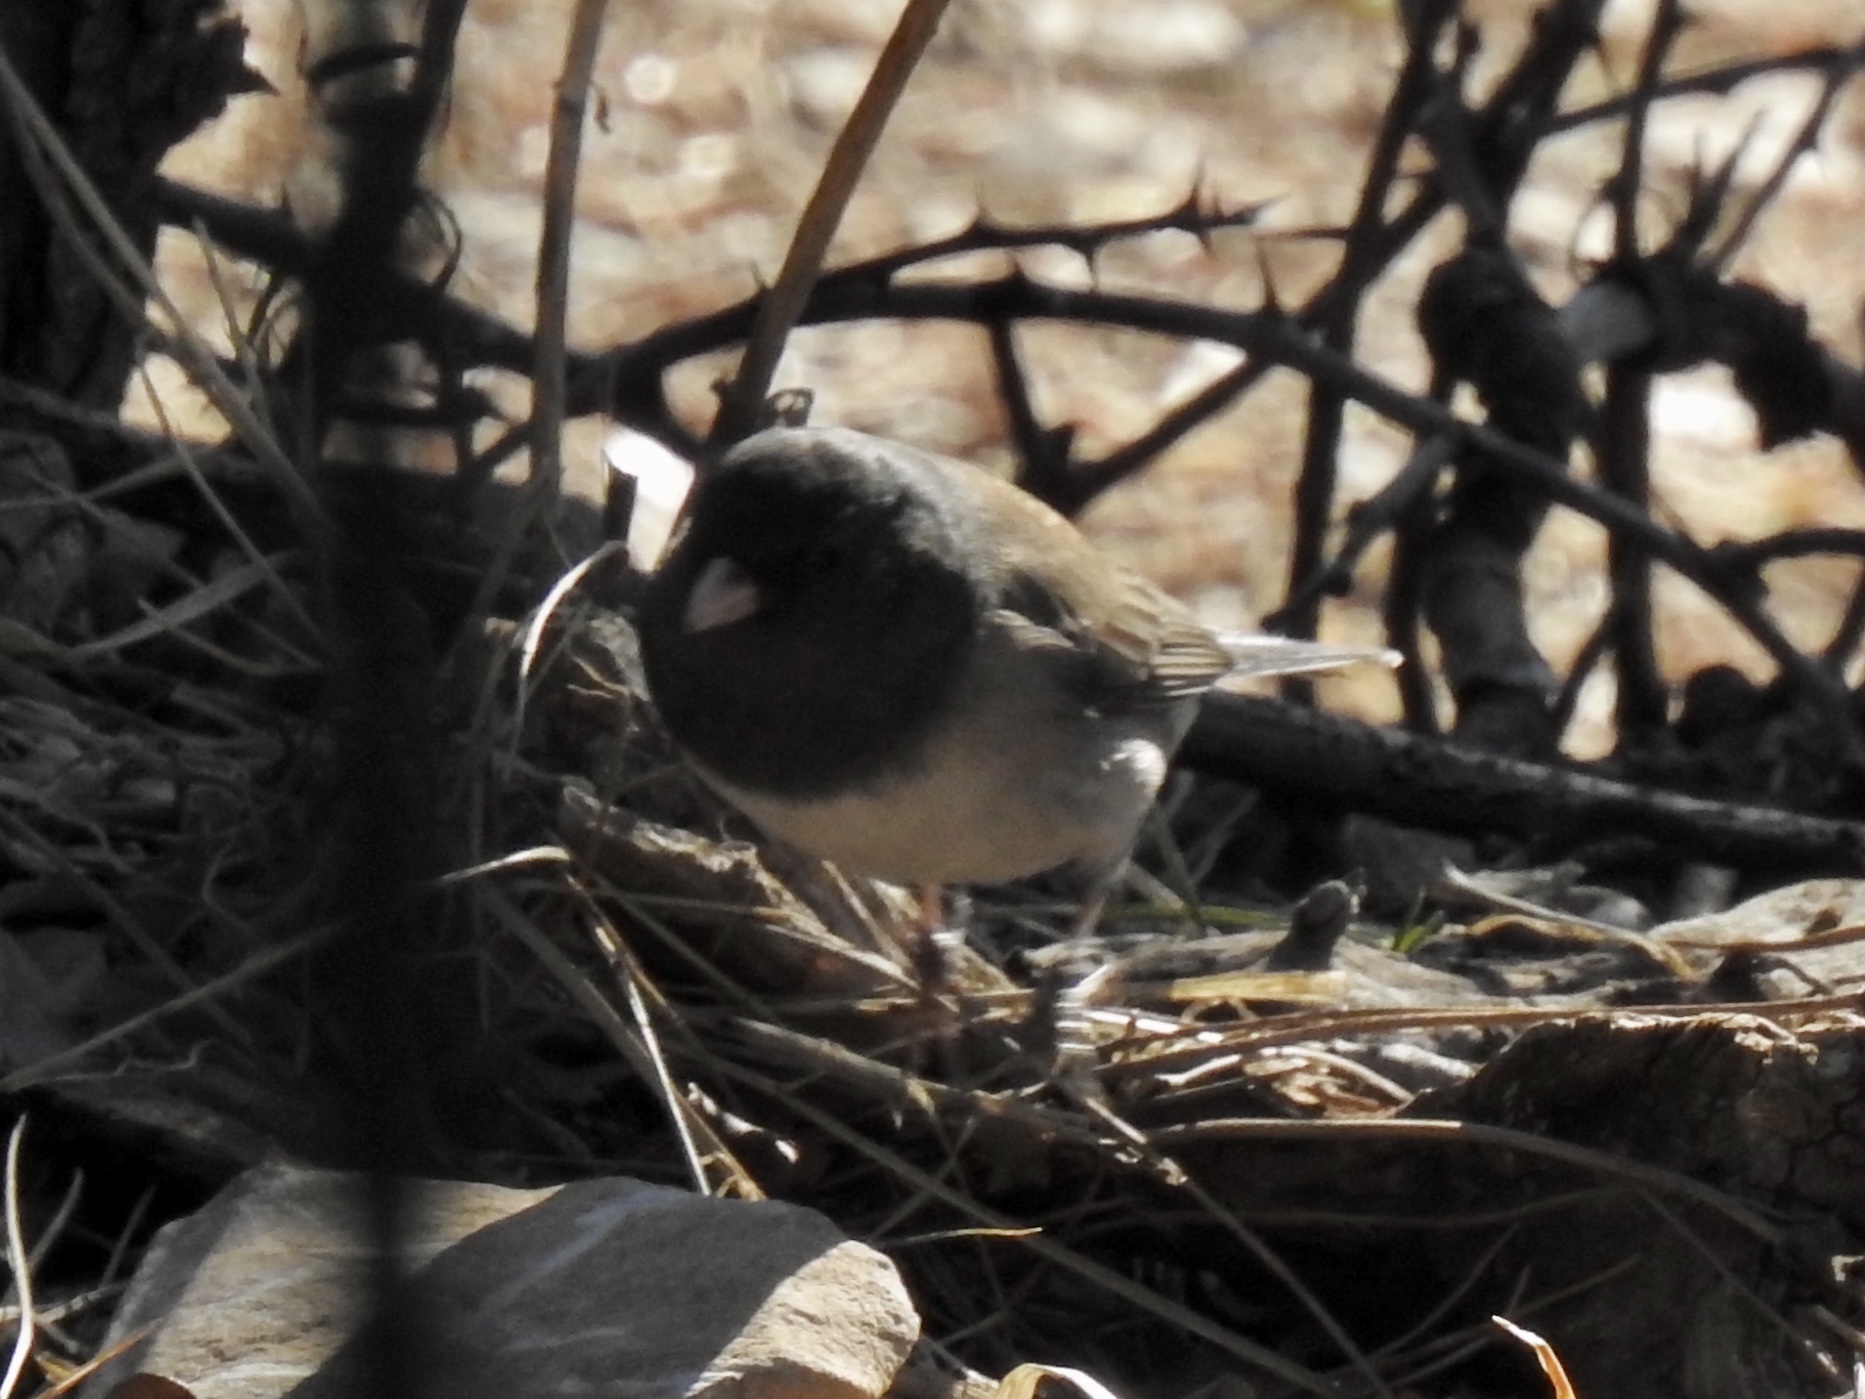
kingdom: Animalia
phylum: Chordata
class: Aves
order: Passeriformes
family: Passerellidae
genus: Junco
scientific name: Junco hyemalis
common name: Dark-eyed junco
